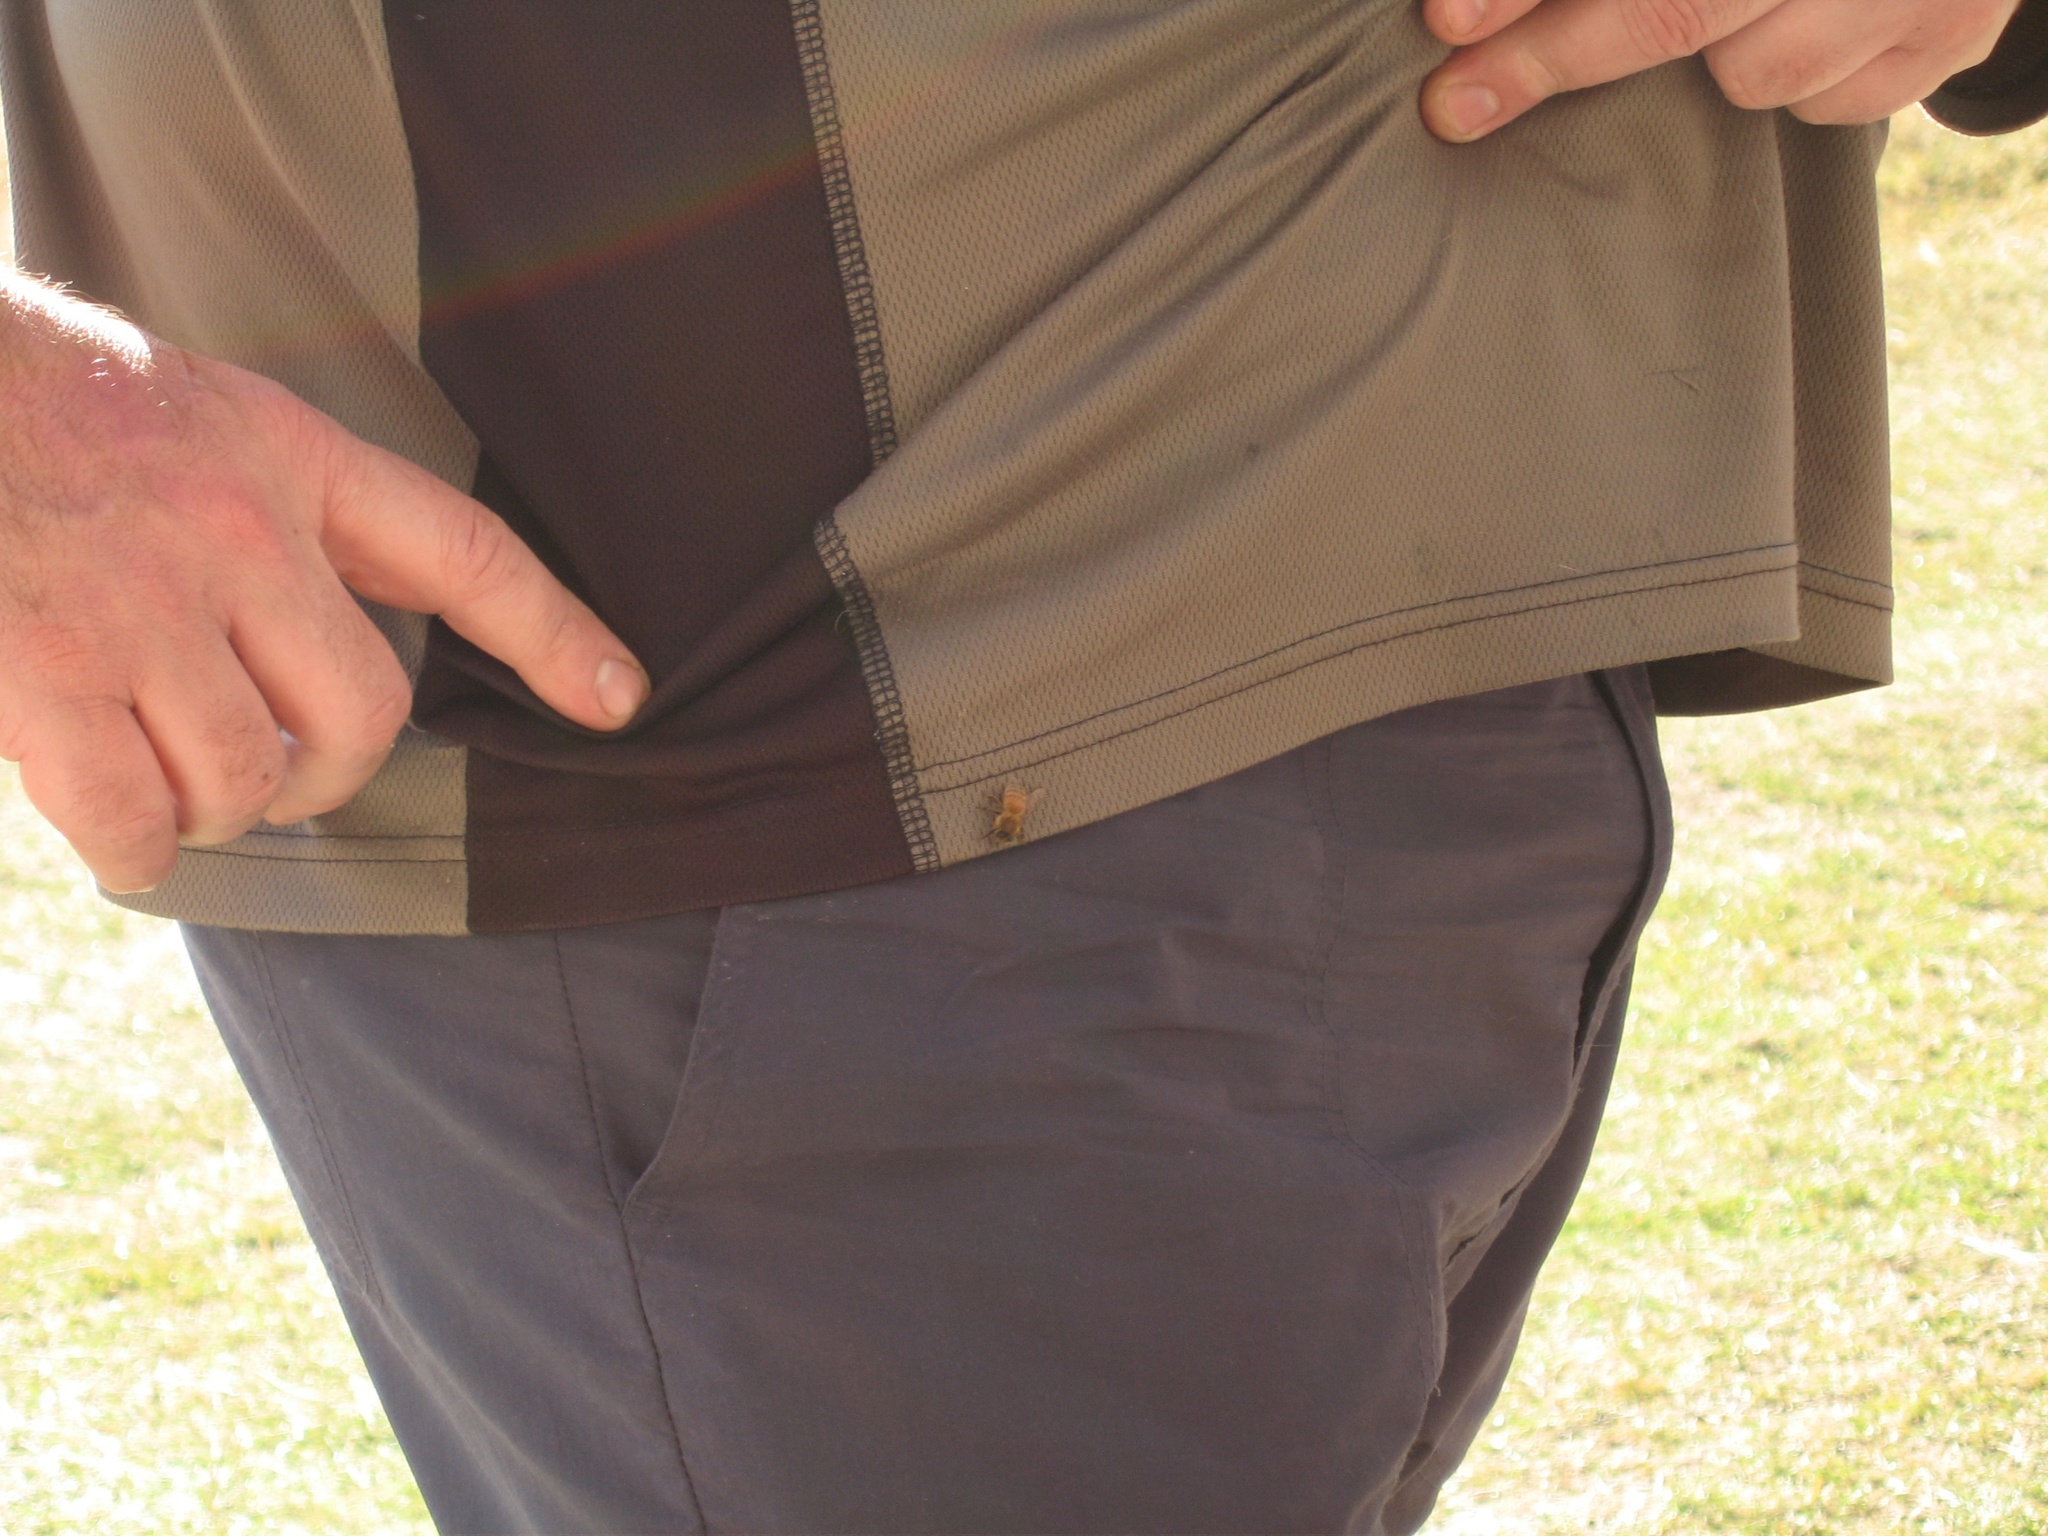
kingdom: Animalia
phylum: Arthropoda
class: Insecta
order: Hymenoptera
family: Apidae
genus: Apis
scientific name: Apis mellifera
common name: Honey bee
